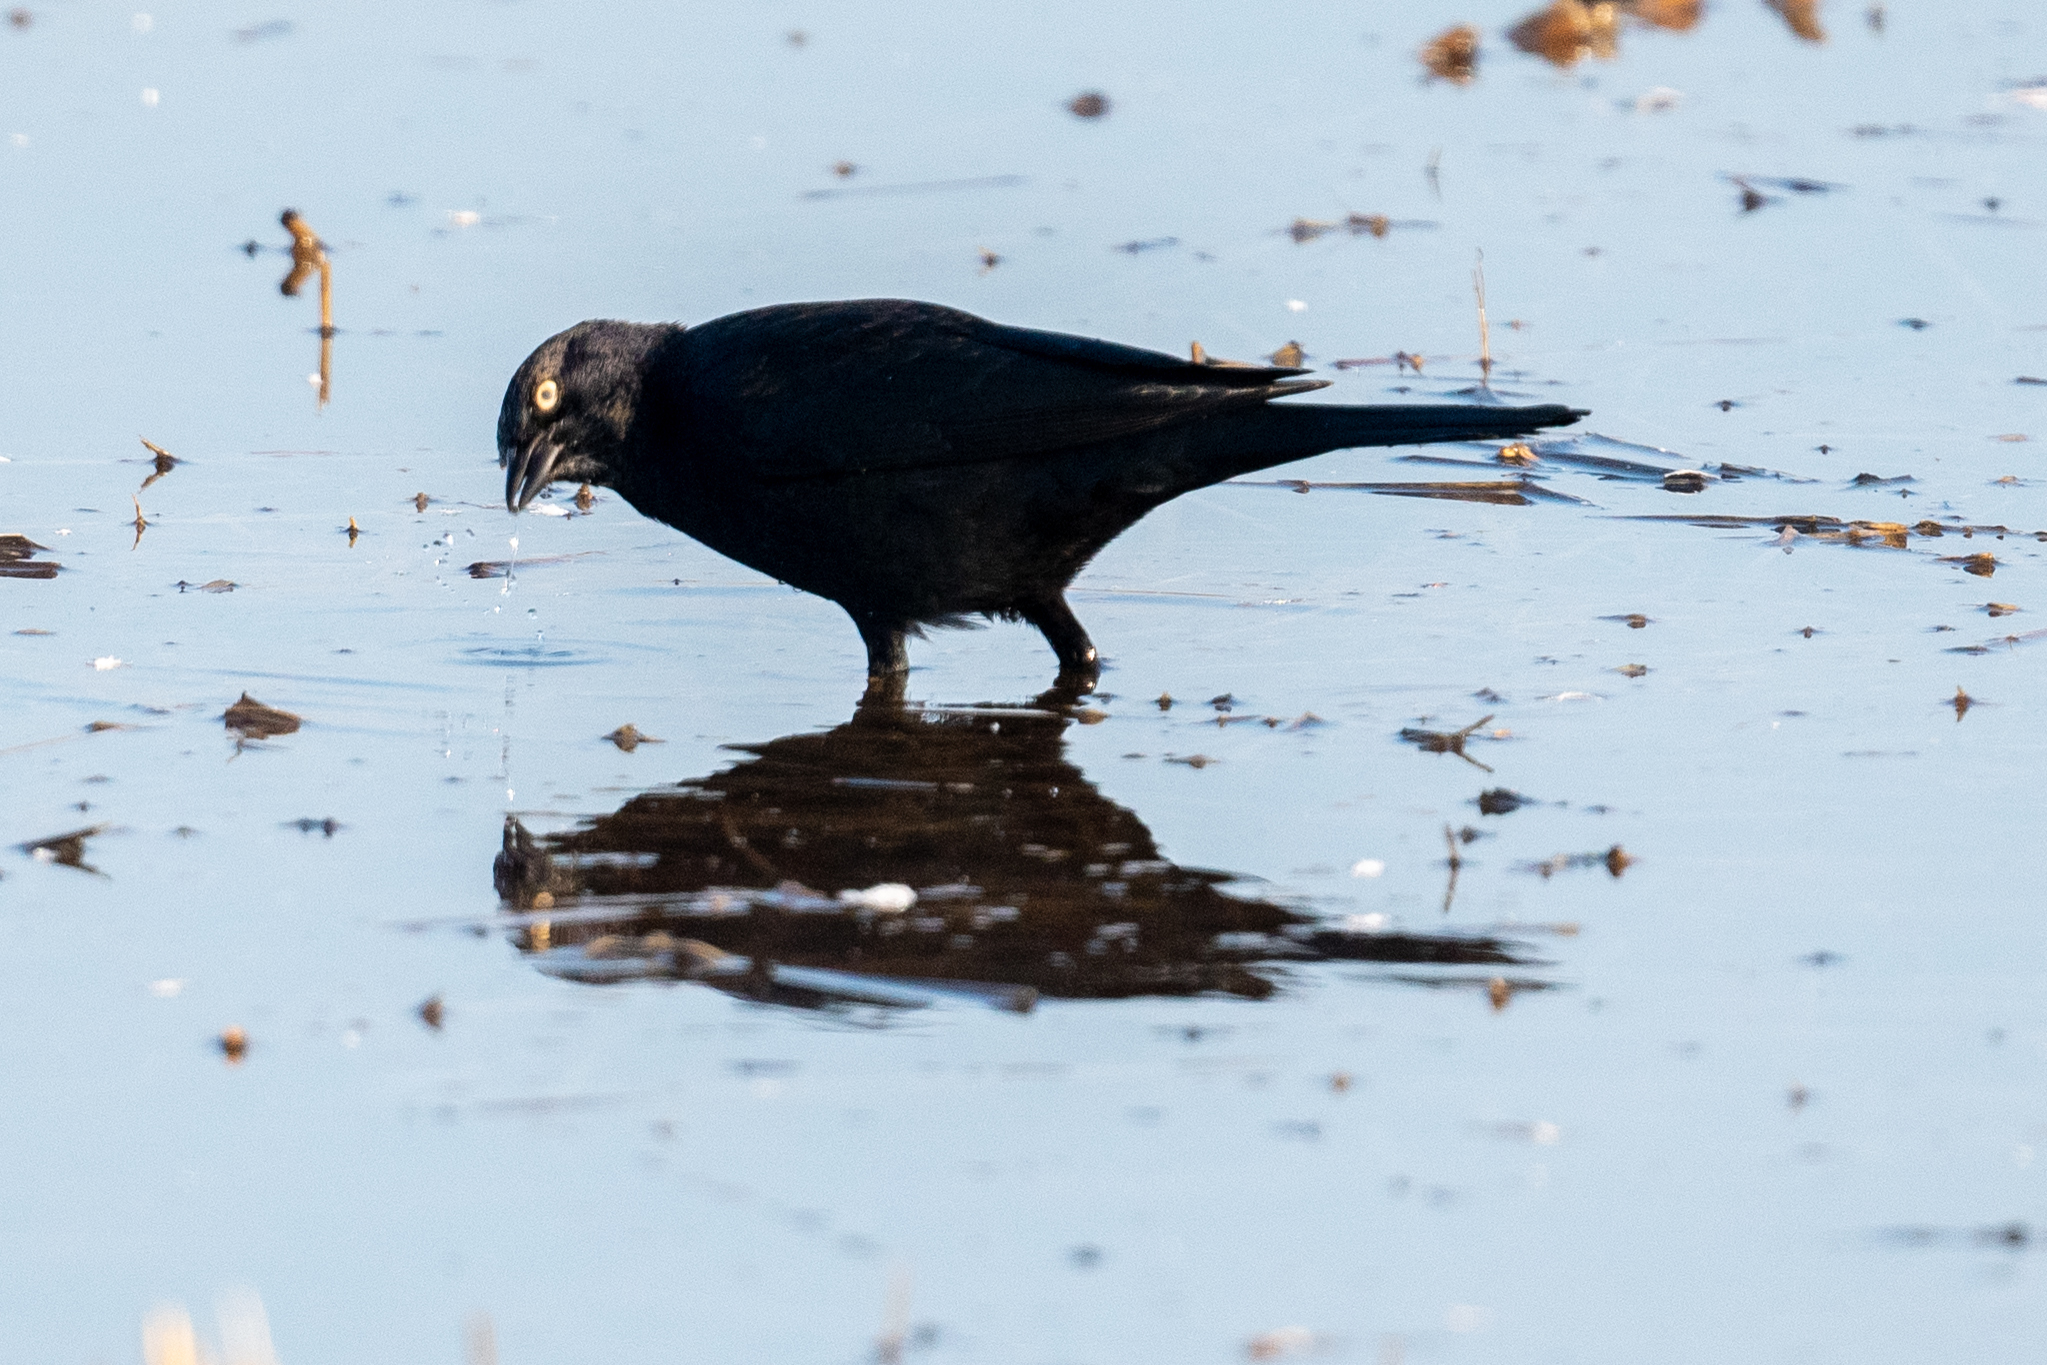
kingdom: Animalia
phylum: Chordata
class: Aves
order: Passeriformes
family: Icteridae
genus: Euphagus
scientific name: Euphagus cyanocephalus
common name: Brewer's blackbird
